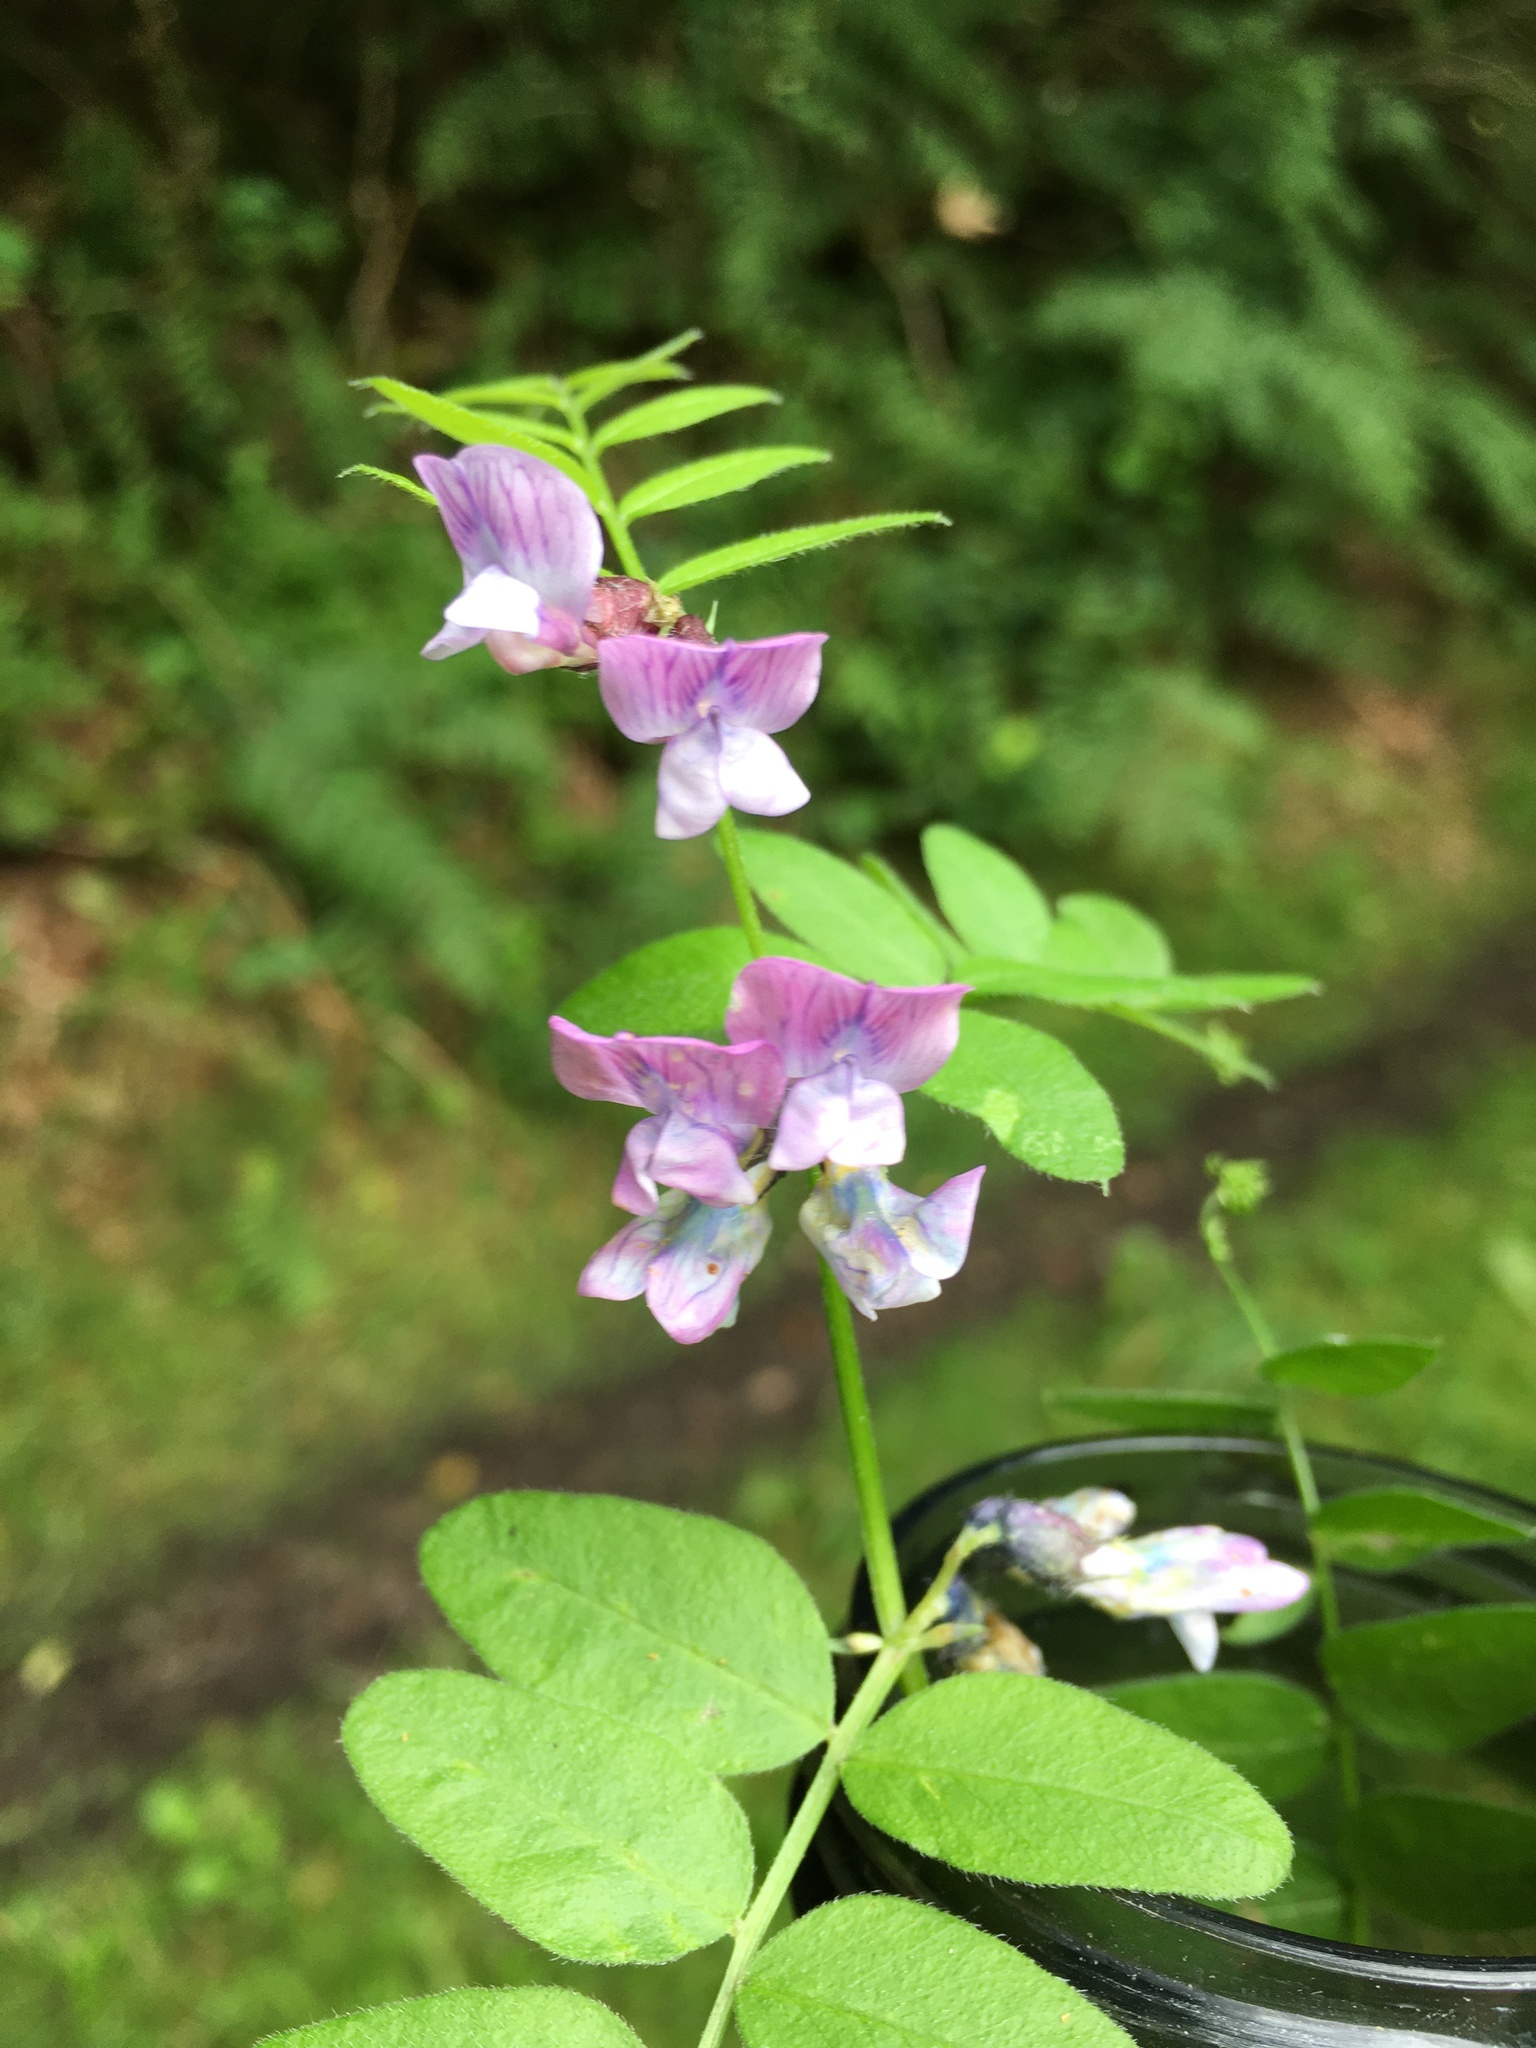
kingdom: Plantae
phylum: Tracheophyta
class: Magnoliopsida
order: Fabales
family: Fabaceae
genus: Vicia
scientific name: Vicia sepium
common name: Bush vetch
